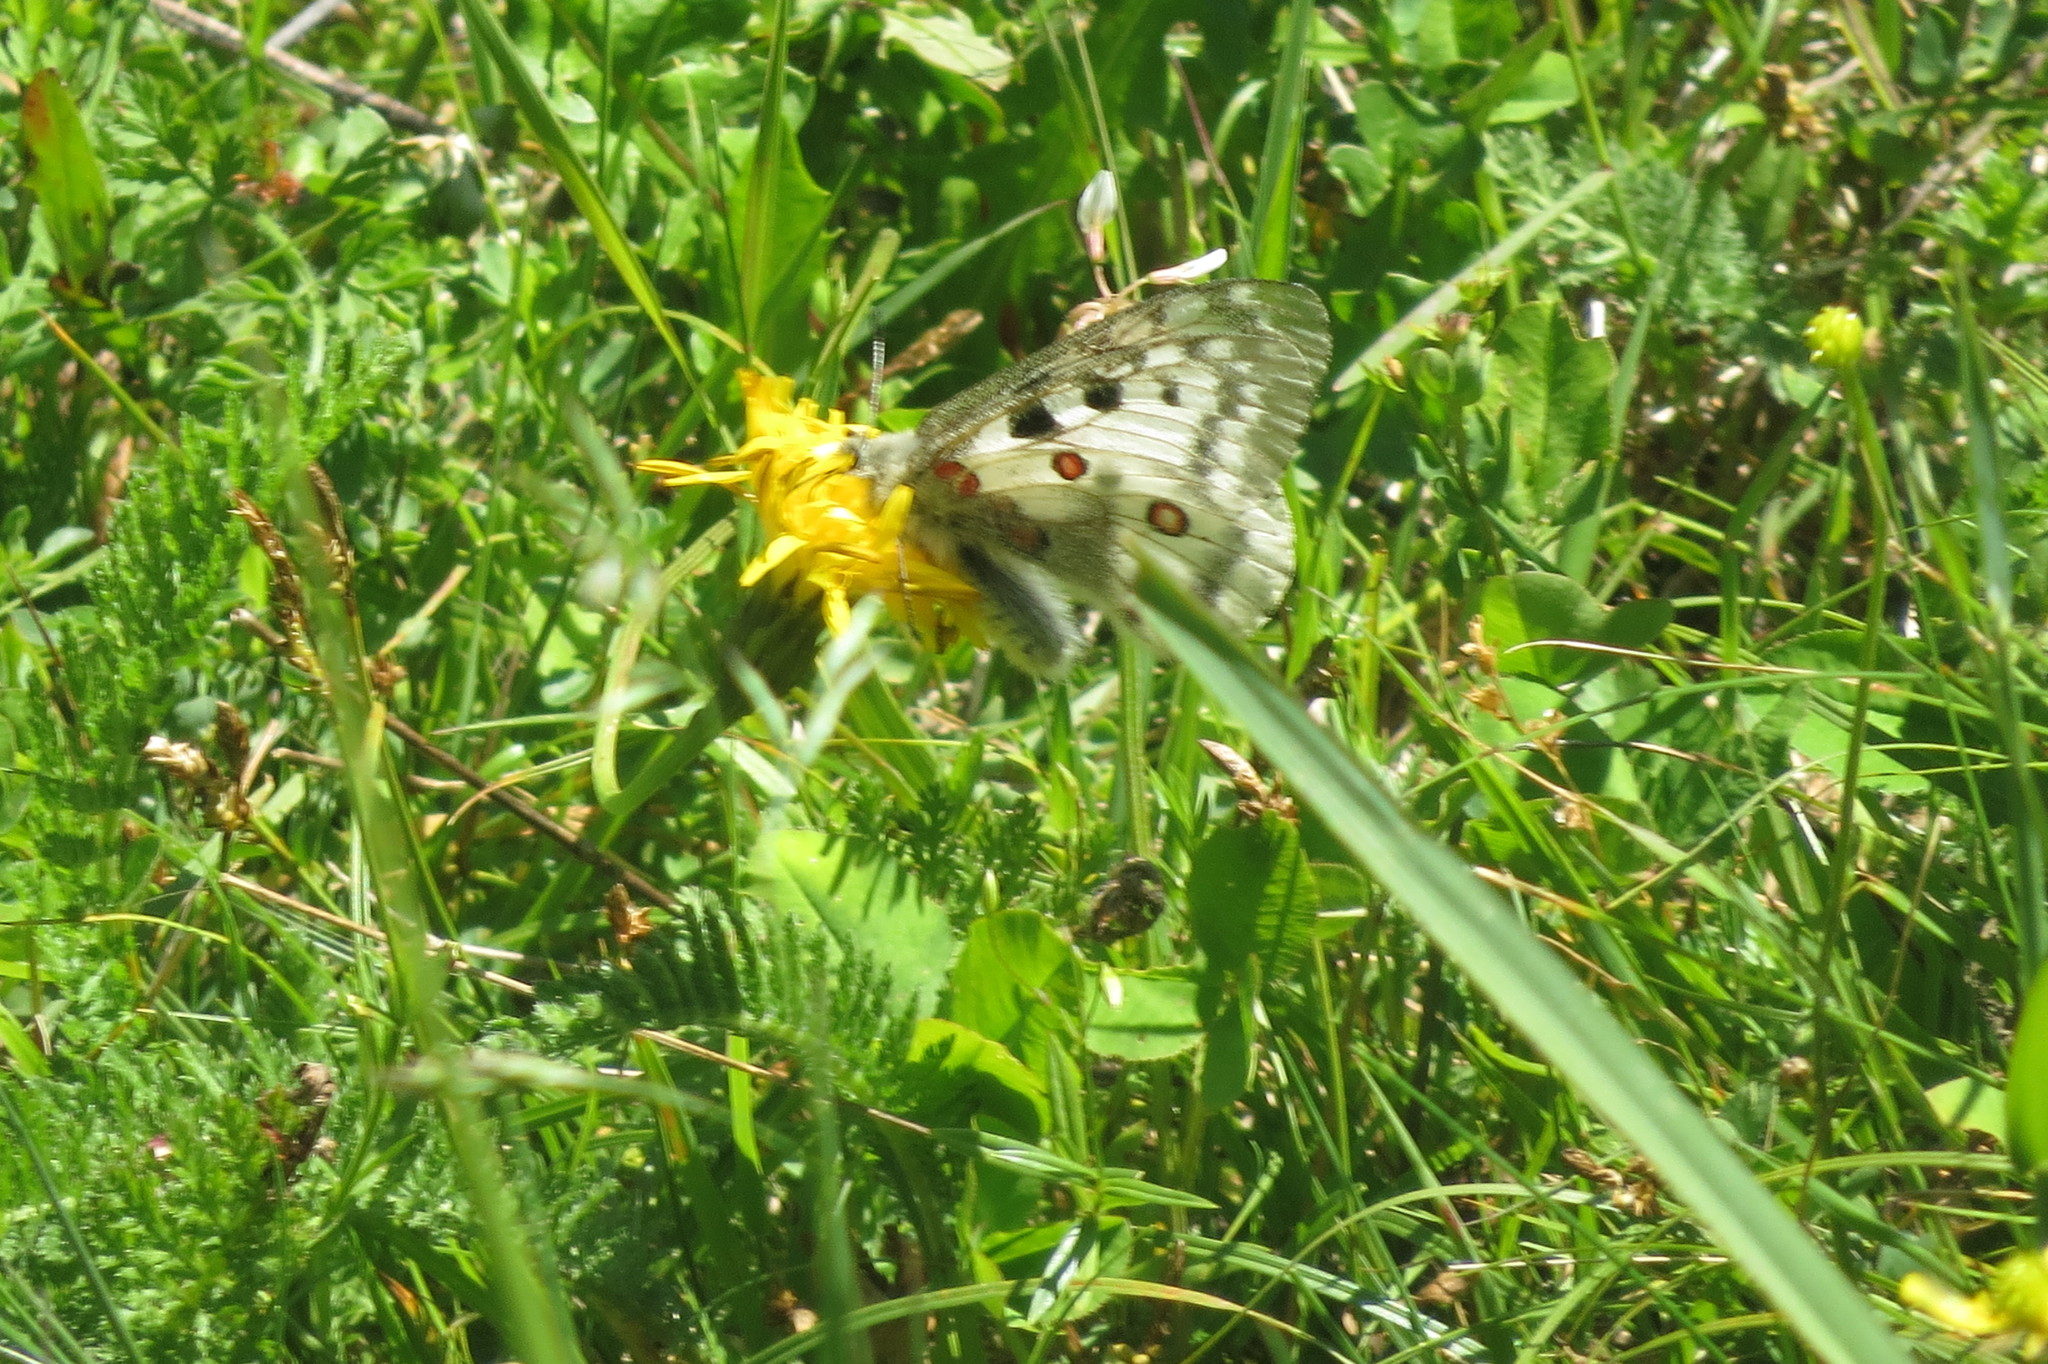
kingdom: Animalia
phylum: Arthropoda
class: Insecta
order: Lepidoptera
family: Papilionidae
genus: Parnassius
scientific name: Parnassius apollo
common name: Apollo
